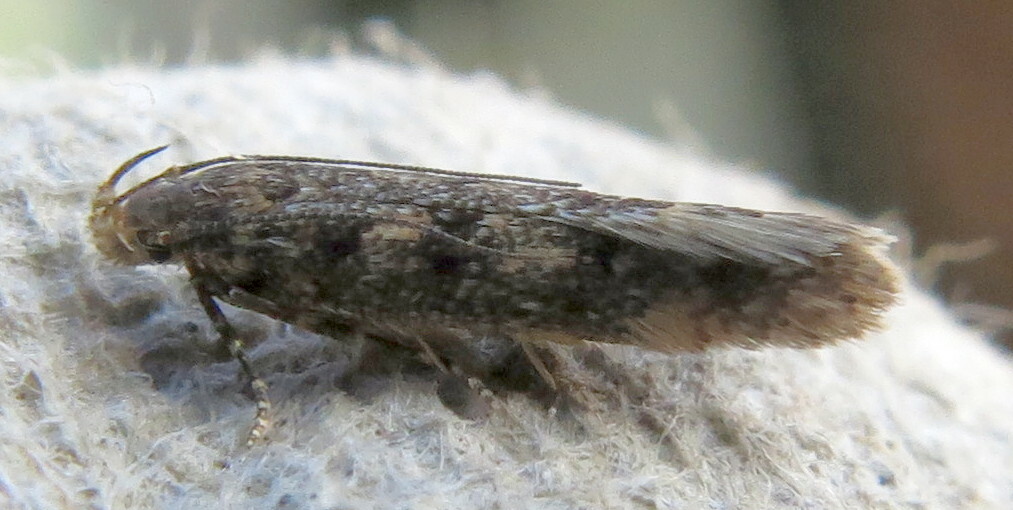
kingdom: Animalia
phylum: Arthropoda
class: Insecta
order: Lepidoptera
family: Gelechiidae
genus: Bryotropha
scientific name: Bryotropha affinis
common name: Dark groundling
